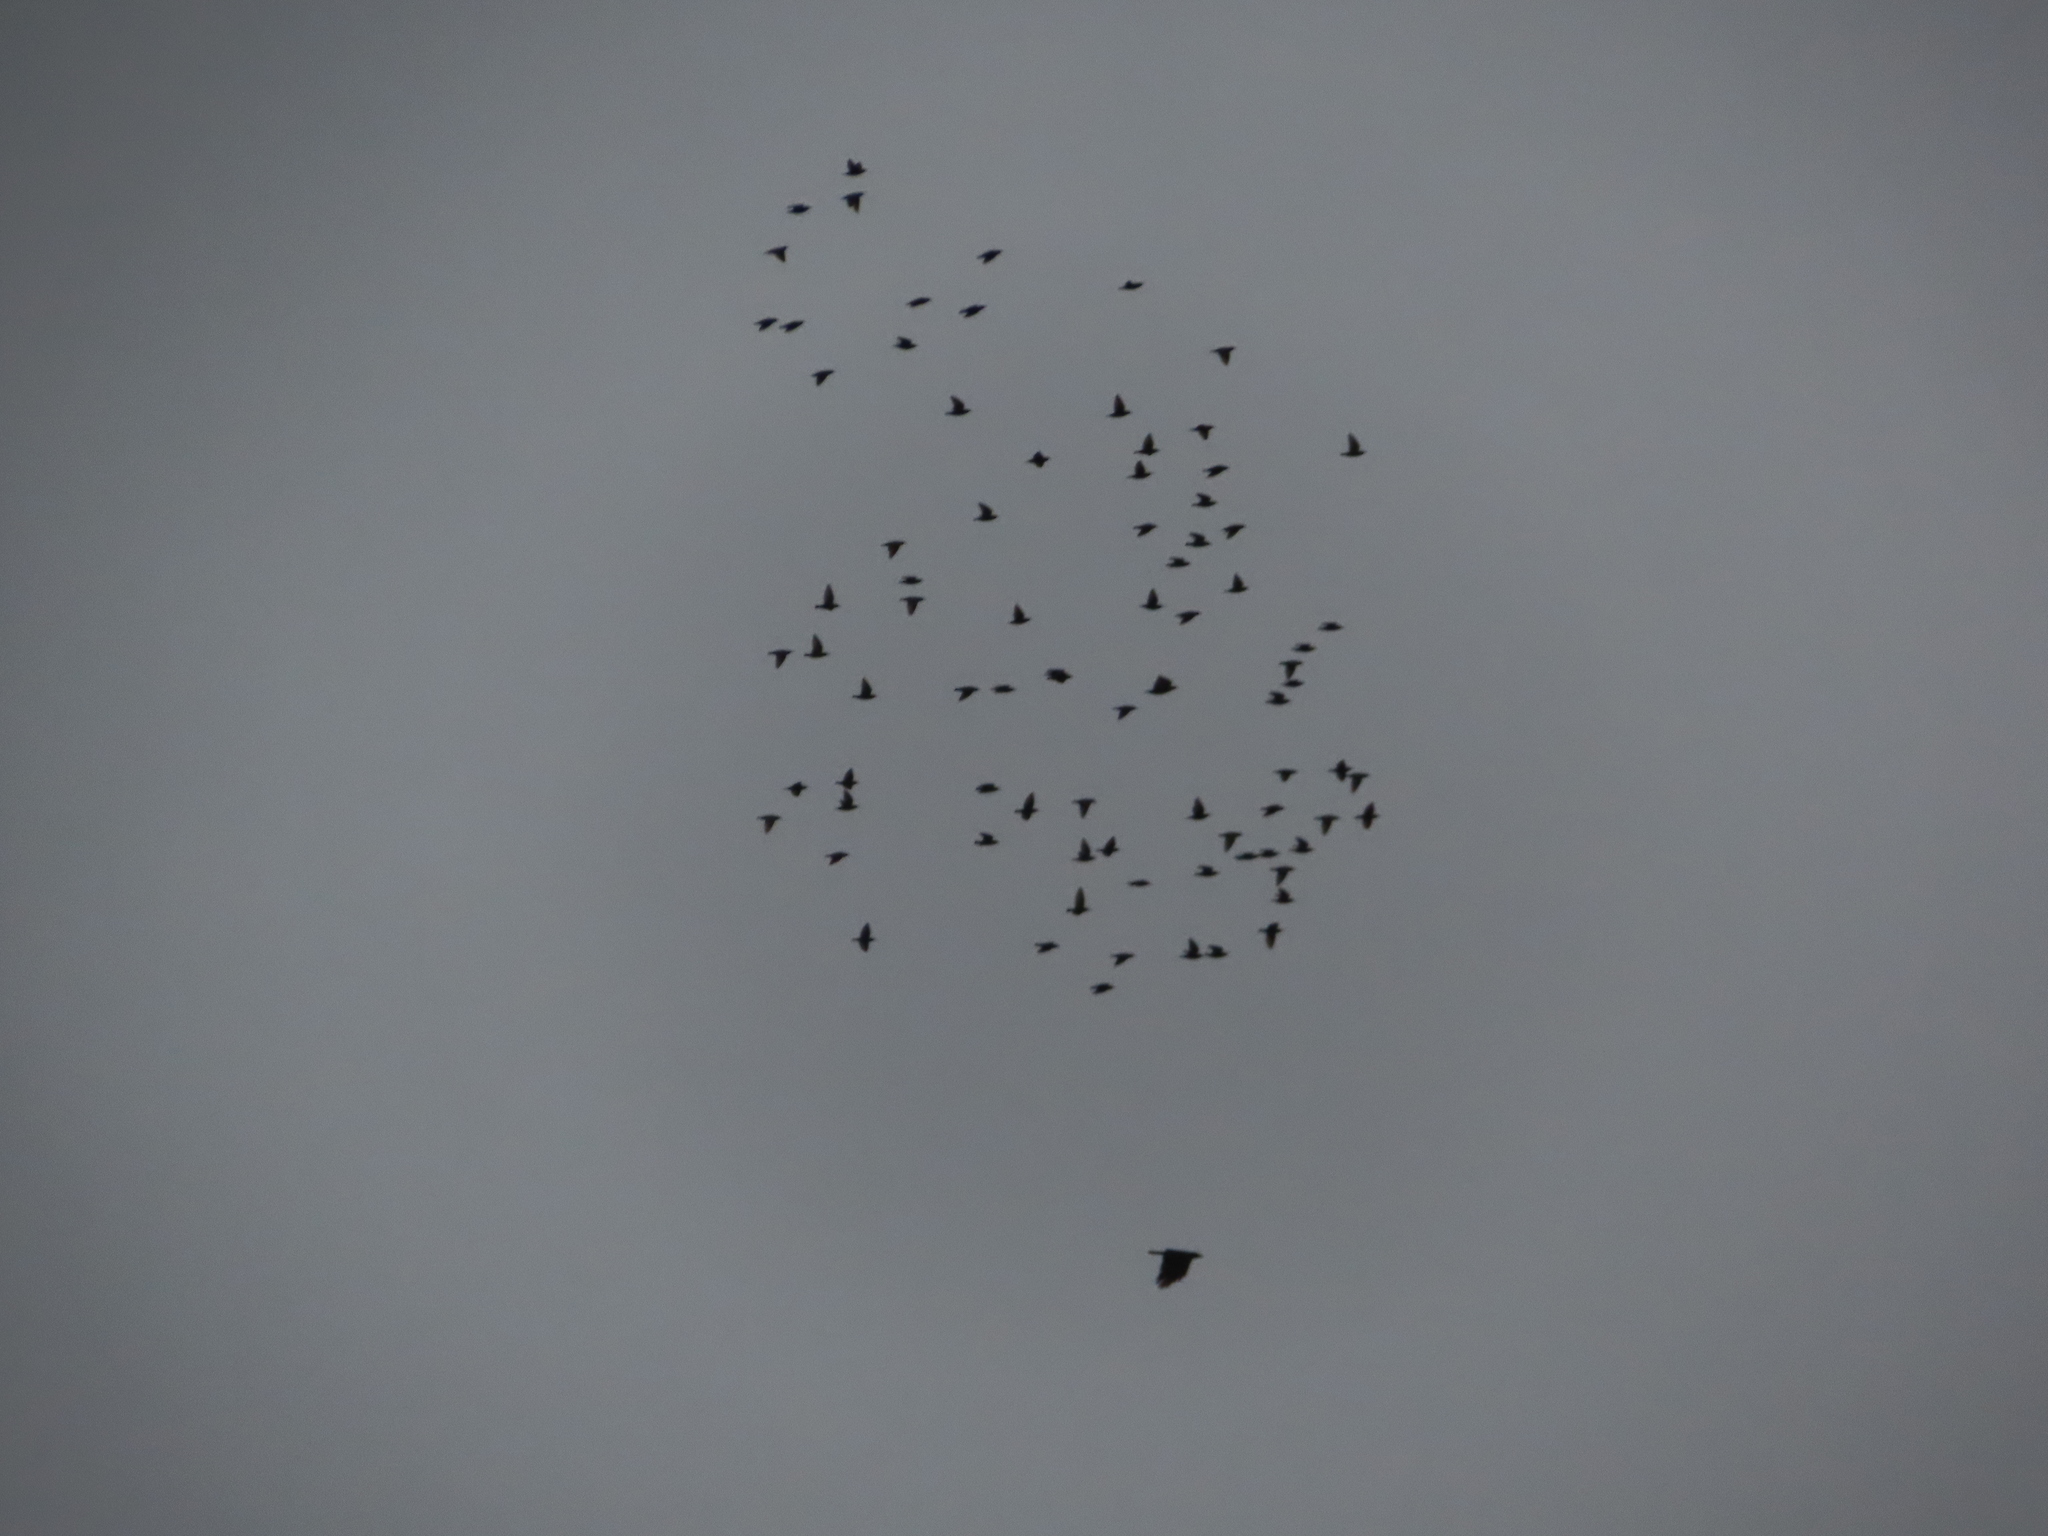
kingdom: Animalia
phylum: Chordata
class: Aves
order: Passeriformes
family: Sturnidae
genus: Sturnus
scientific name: Sturnus vulgaris
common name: Common starling
